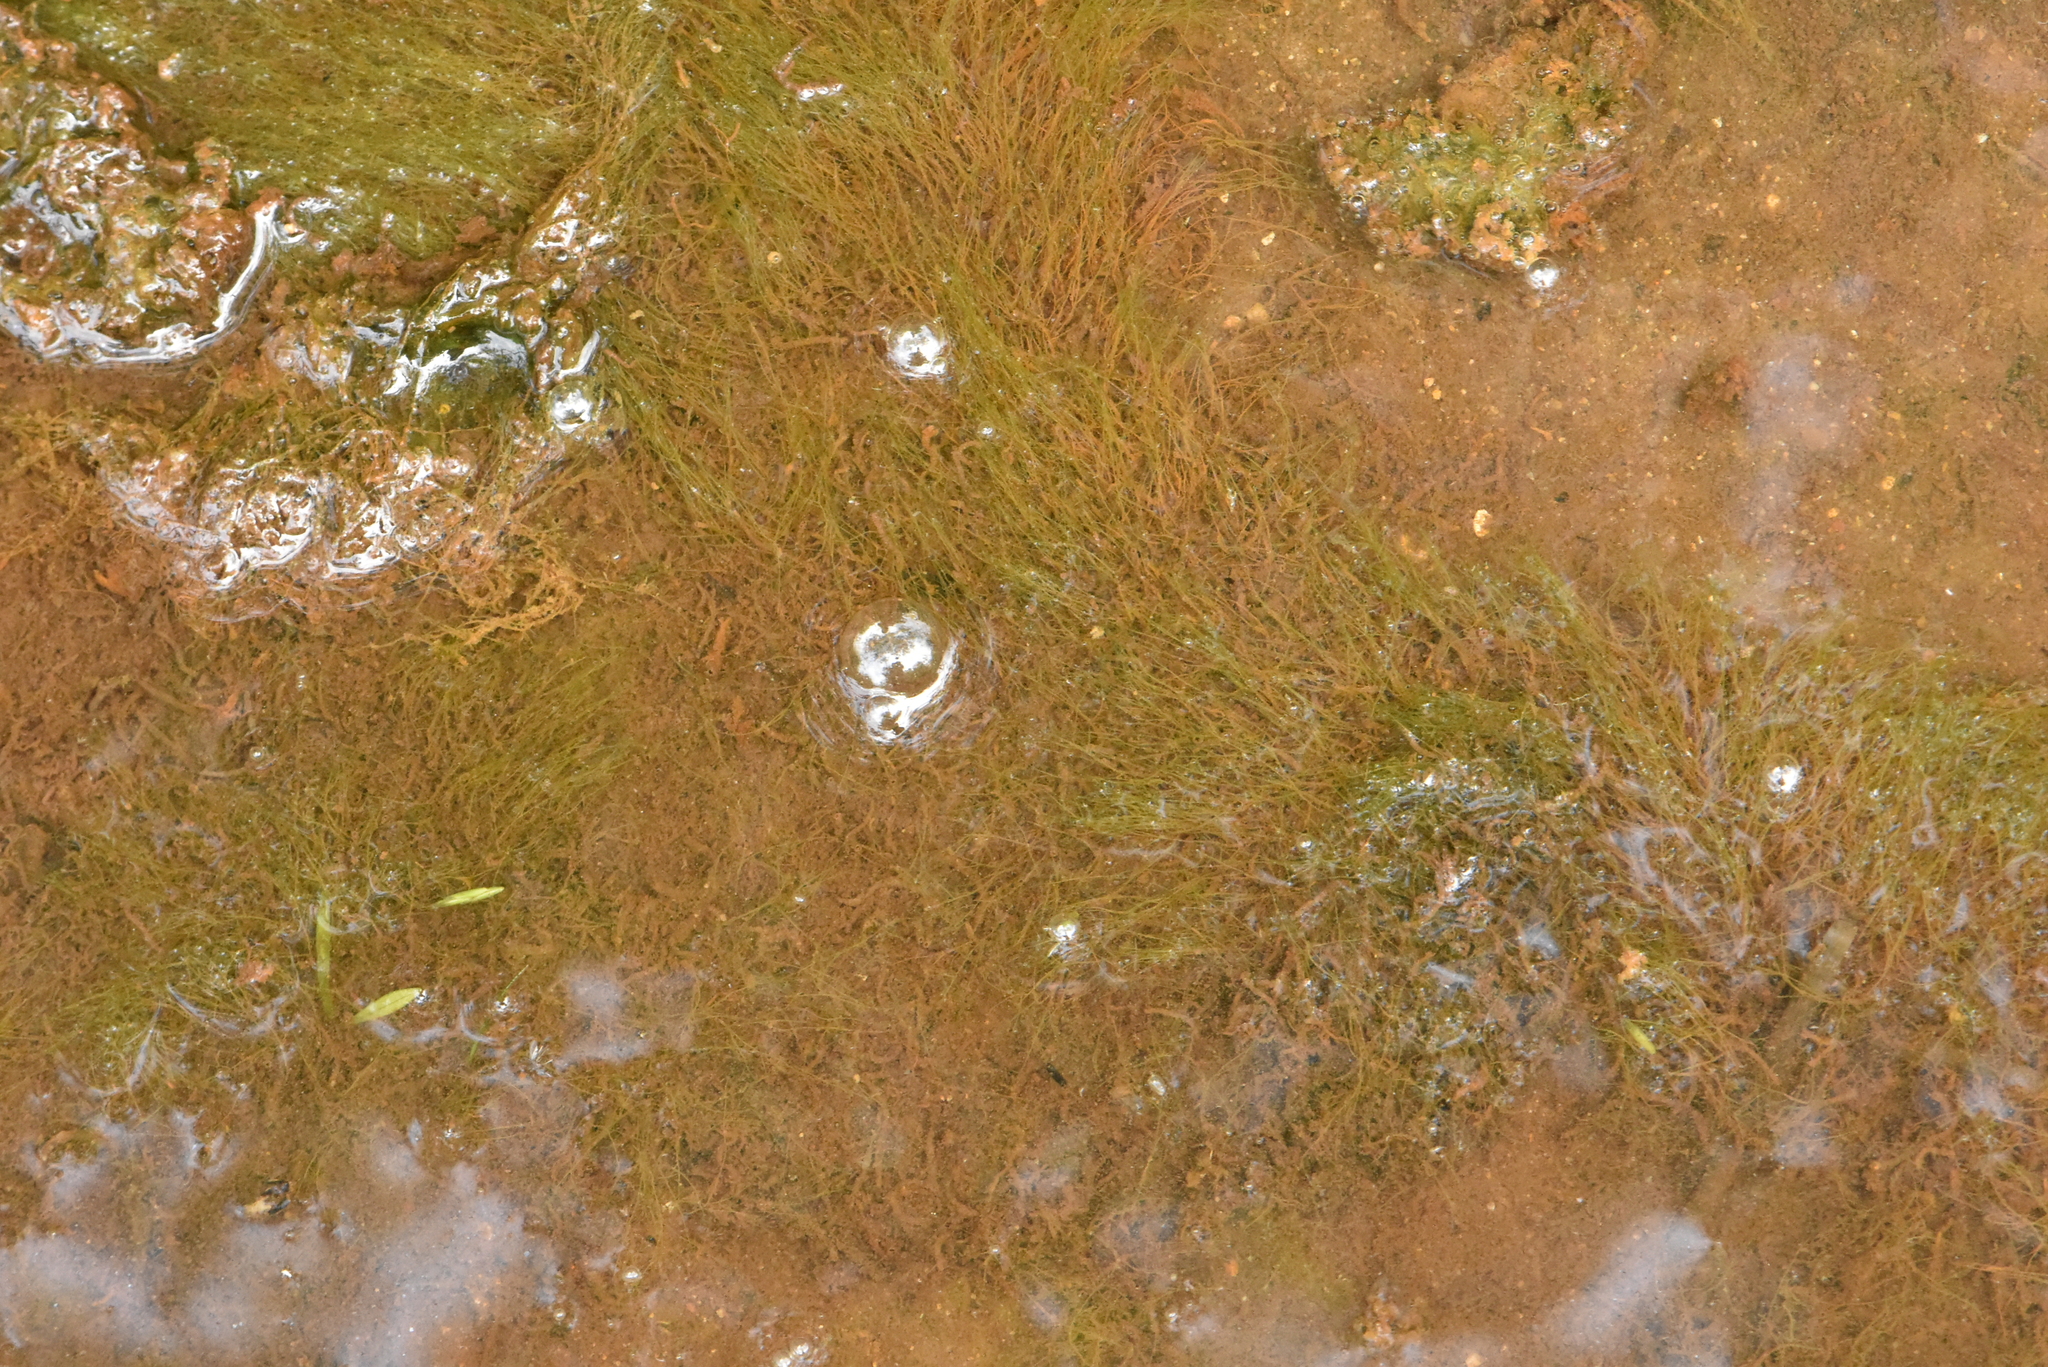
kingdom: Chromista
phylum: Ochrophyta
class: Xanthophyceae
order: Vaucheriales
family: Vaucheriaceae
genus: Vaucheria
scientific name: Vaucheria
